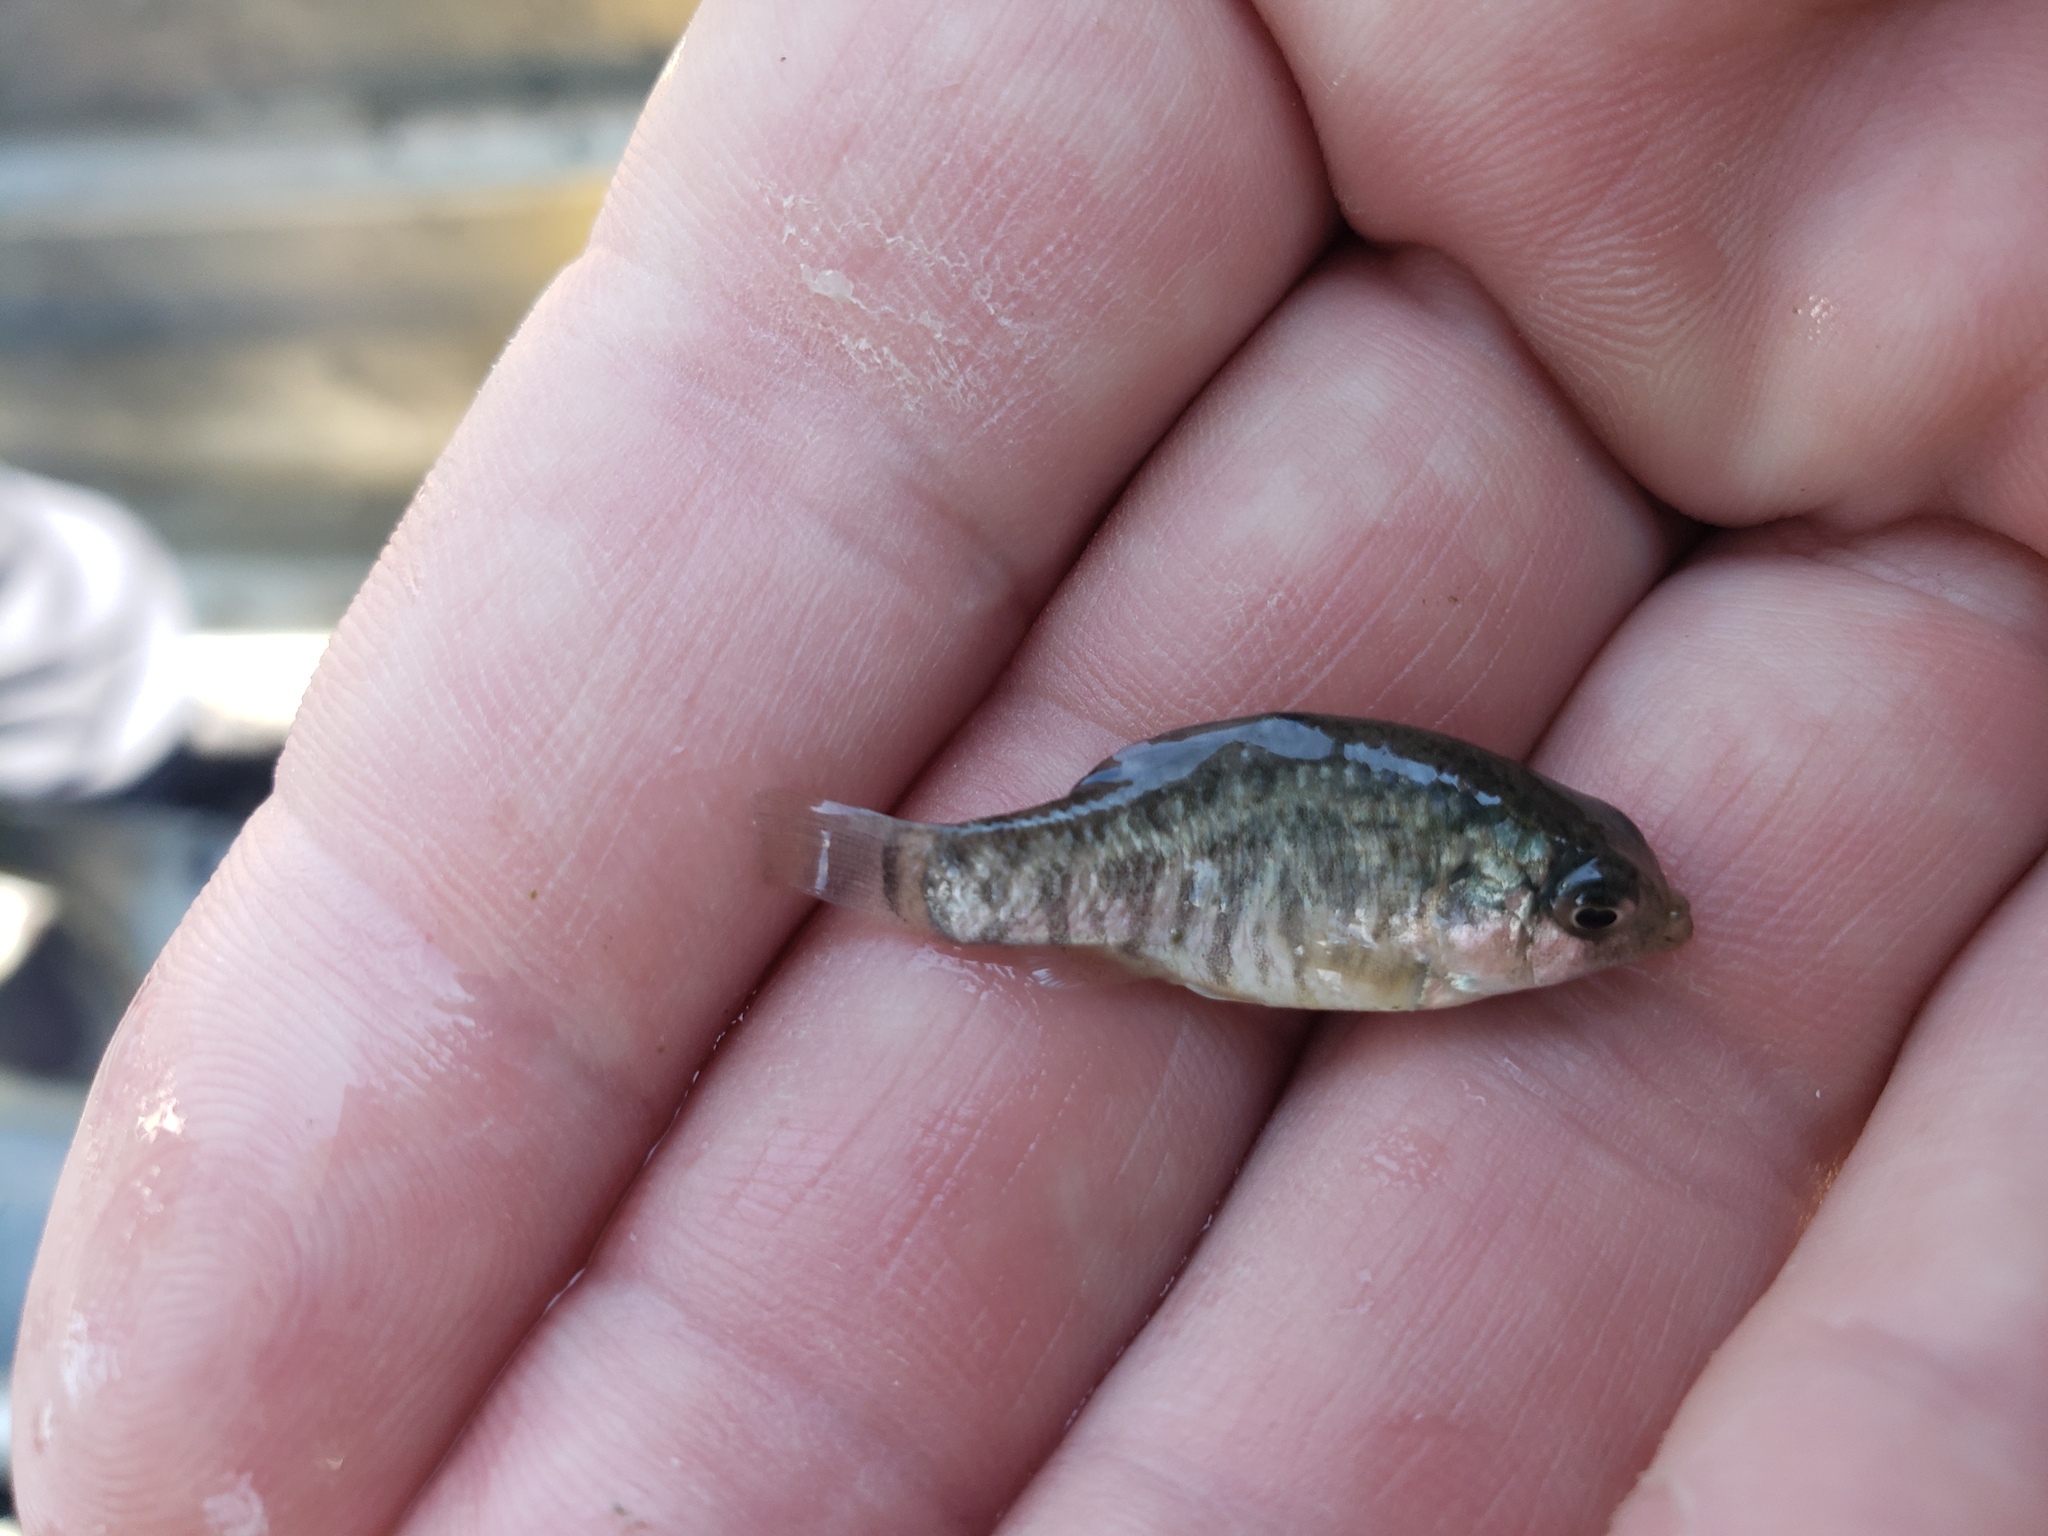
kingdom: Animalia
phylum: Chordata
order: Cyprinodontiformes
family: Cyprinodontidae
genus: Cyprinodon
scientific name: Cyprinodon variegatus
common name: Sheepshead minnow
